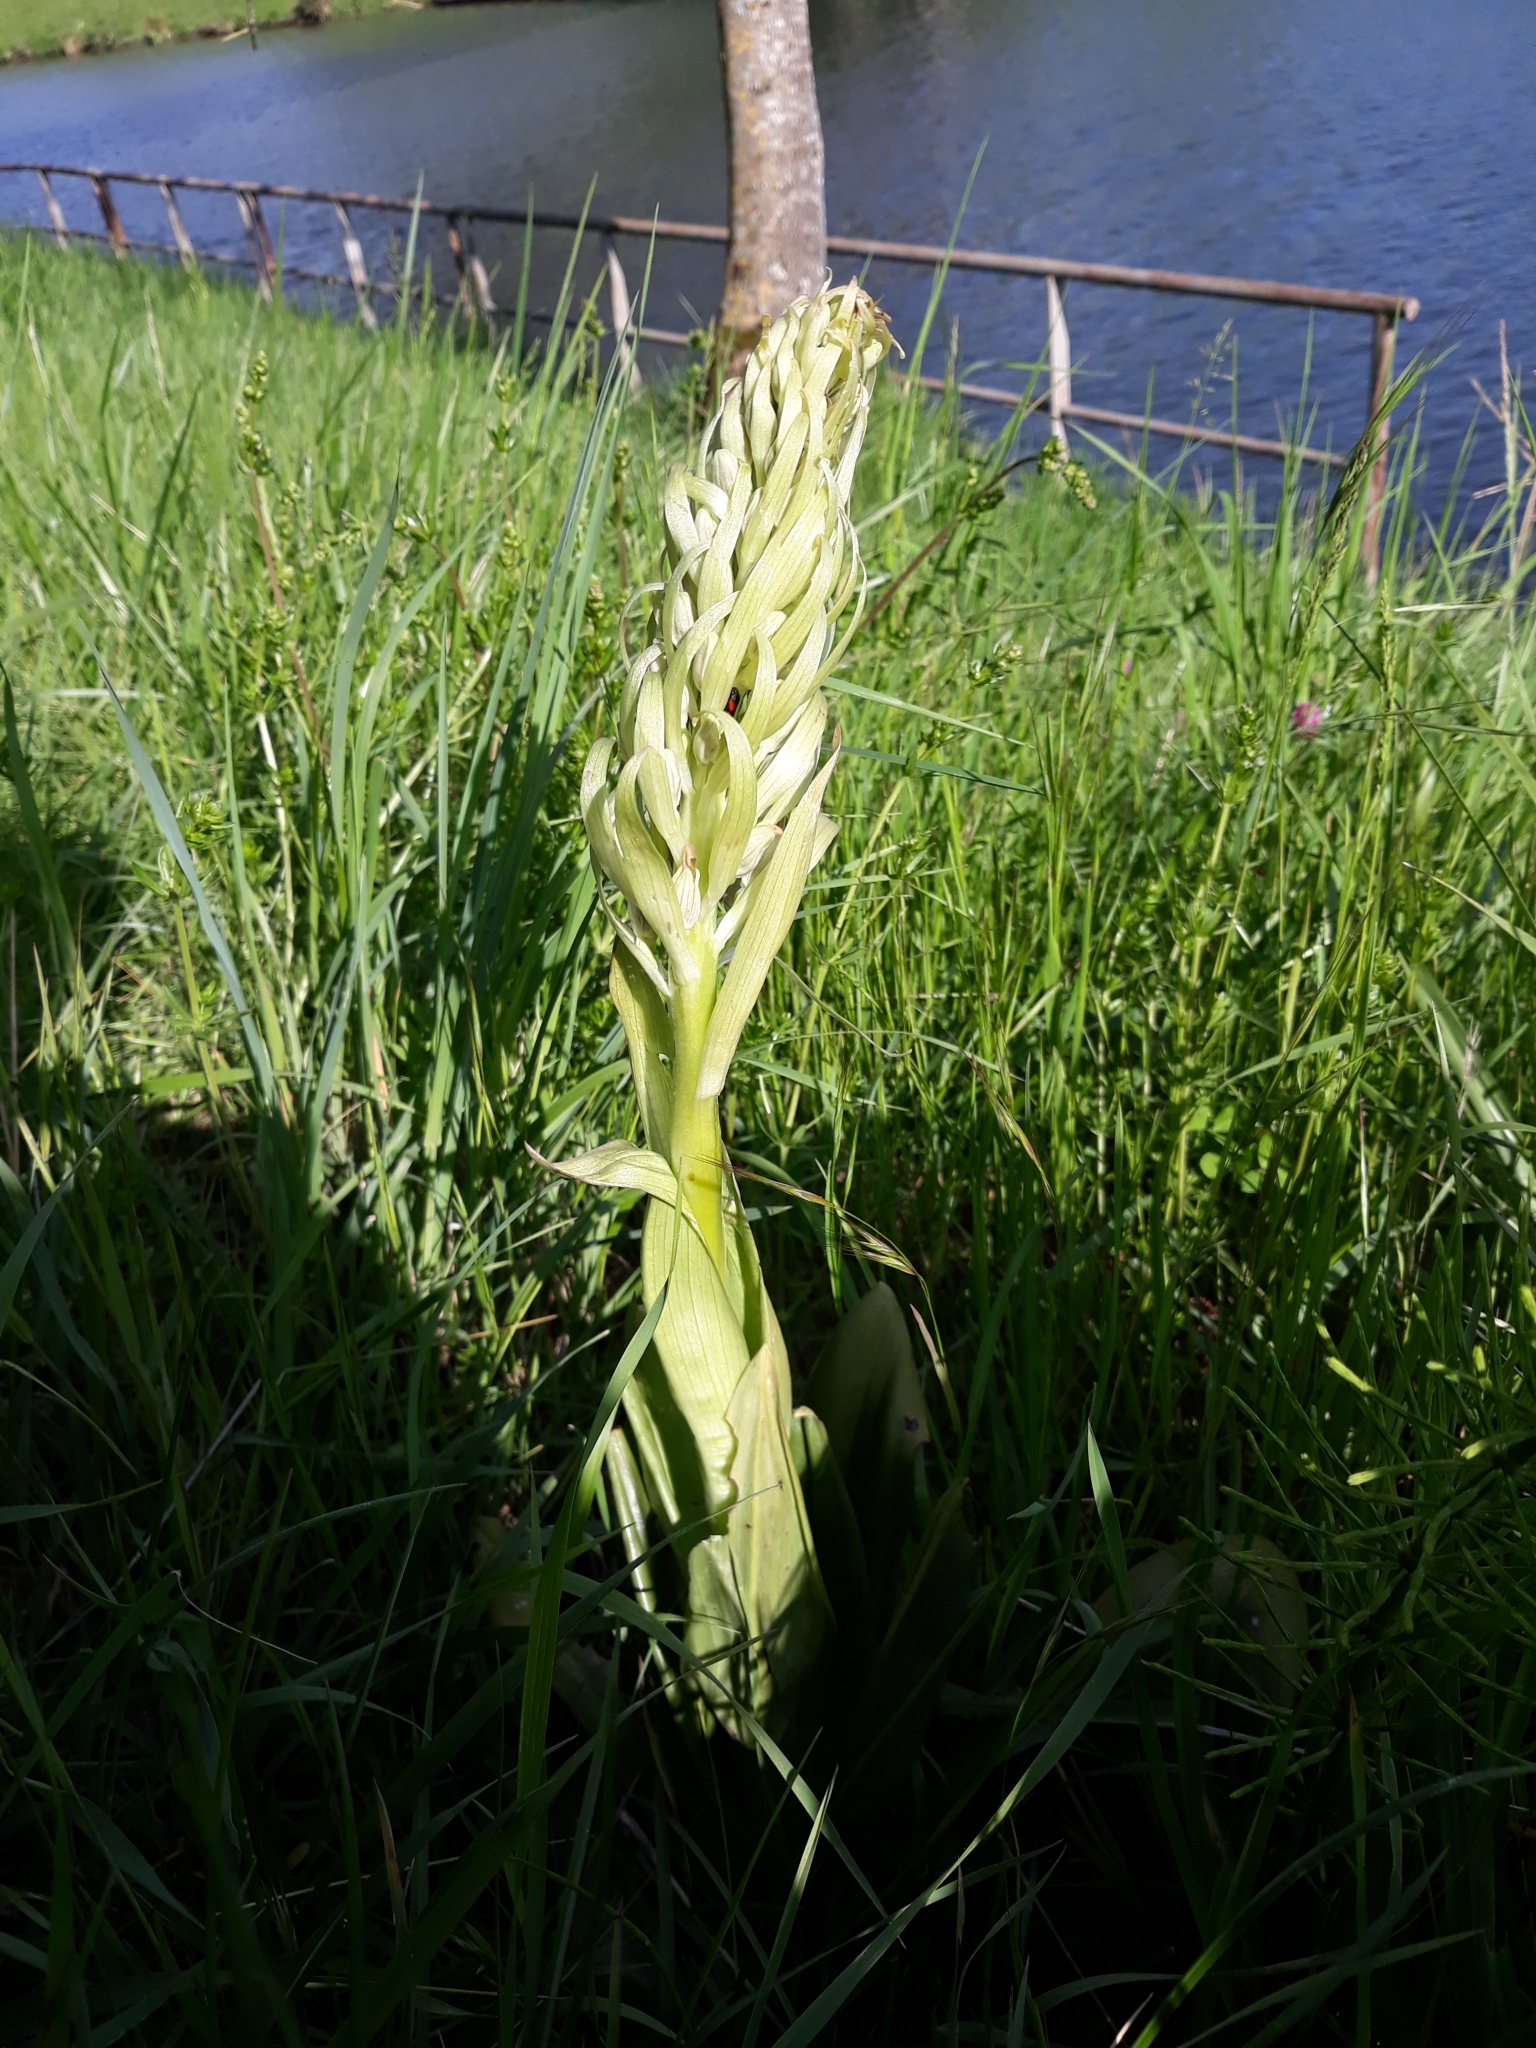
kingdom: Plantae
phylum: Tracheophyta
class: Liliopsida
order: Asparagales
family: Orchidaceae
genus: Himantoglossum
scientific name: Himantoglossum hircinum
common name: Lizard orchid
